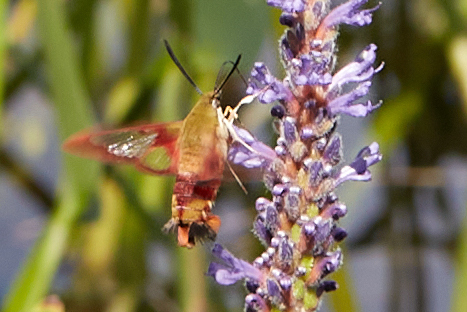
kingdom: Animalia
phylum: Arthropoda
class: Insecta
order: Lepidoptera
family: Sphingidae
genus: Hemaris
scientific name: Hemaris thysbe
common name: Common clear-wing
